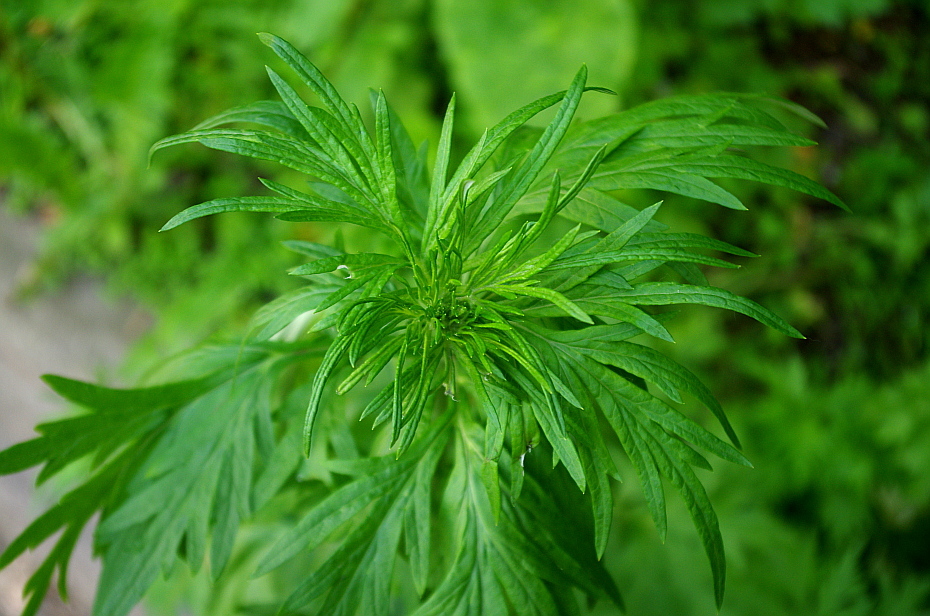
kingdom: Plantae
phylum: Tracheophyta
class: Magnoliopsida
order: Asterales
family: Asteraceae
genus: Artemisia
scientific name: Artemisia vulgaris
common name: Mugwort
